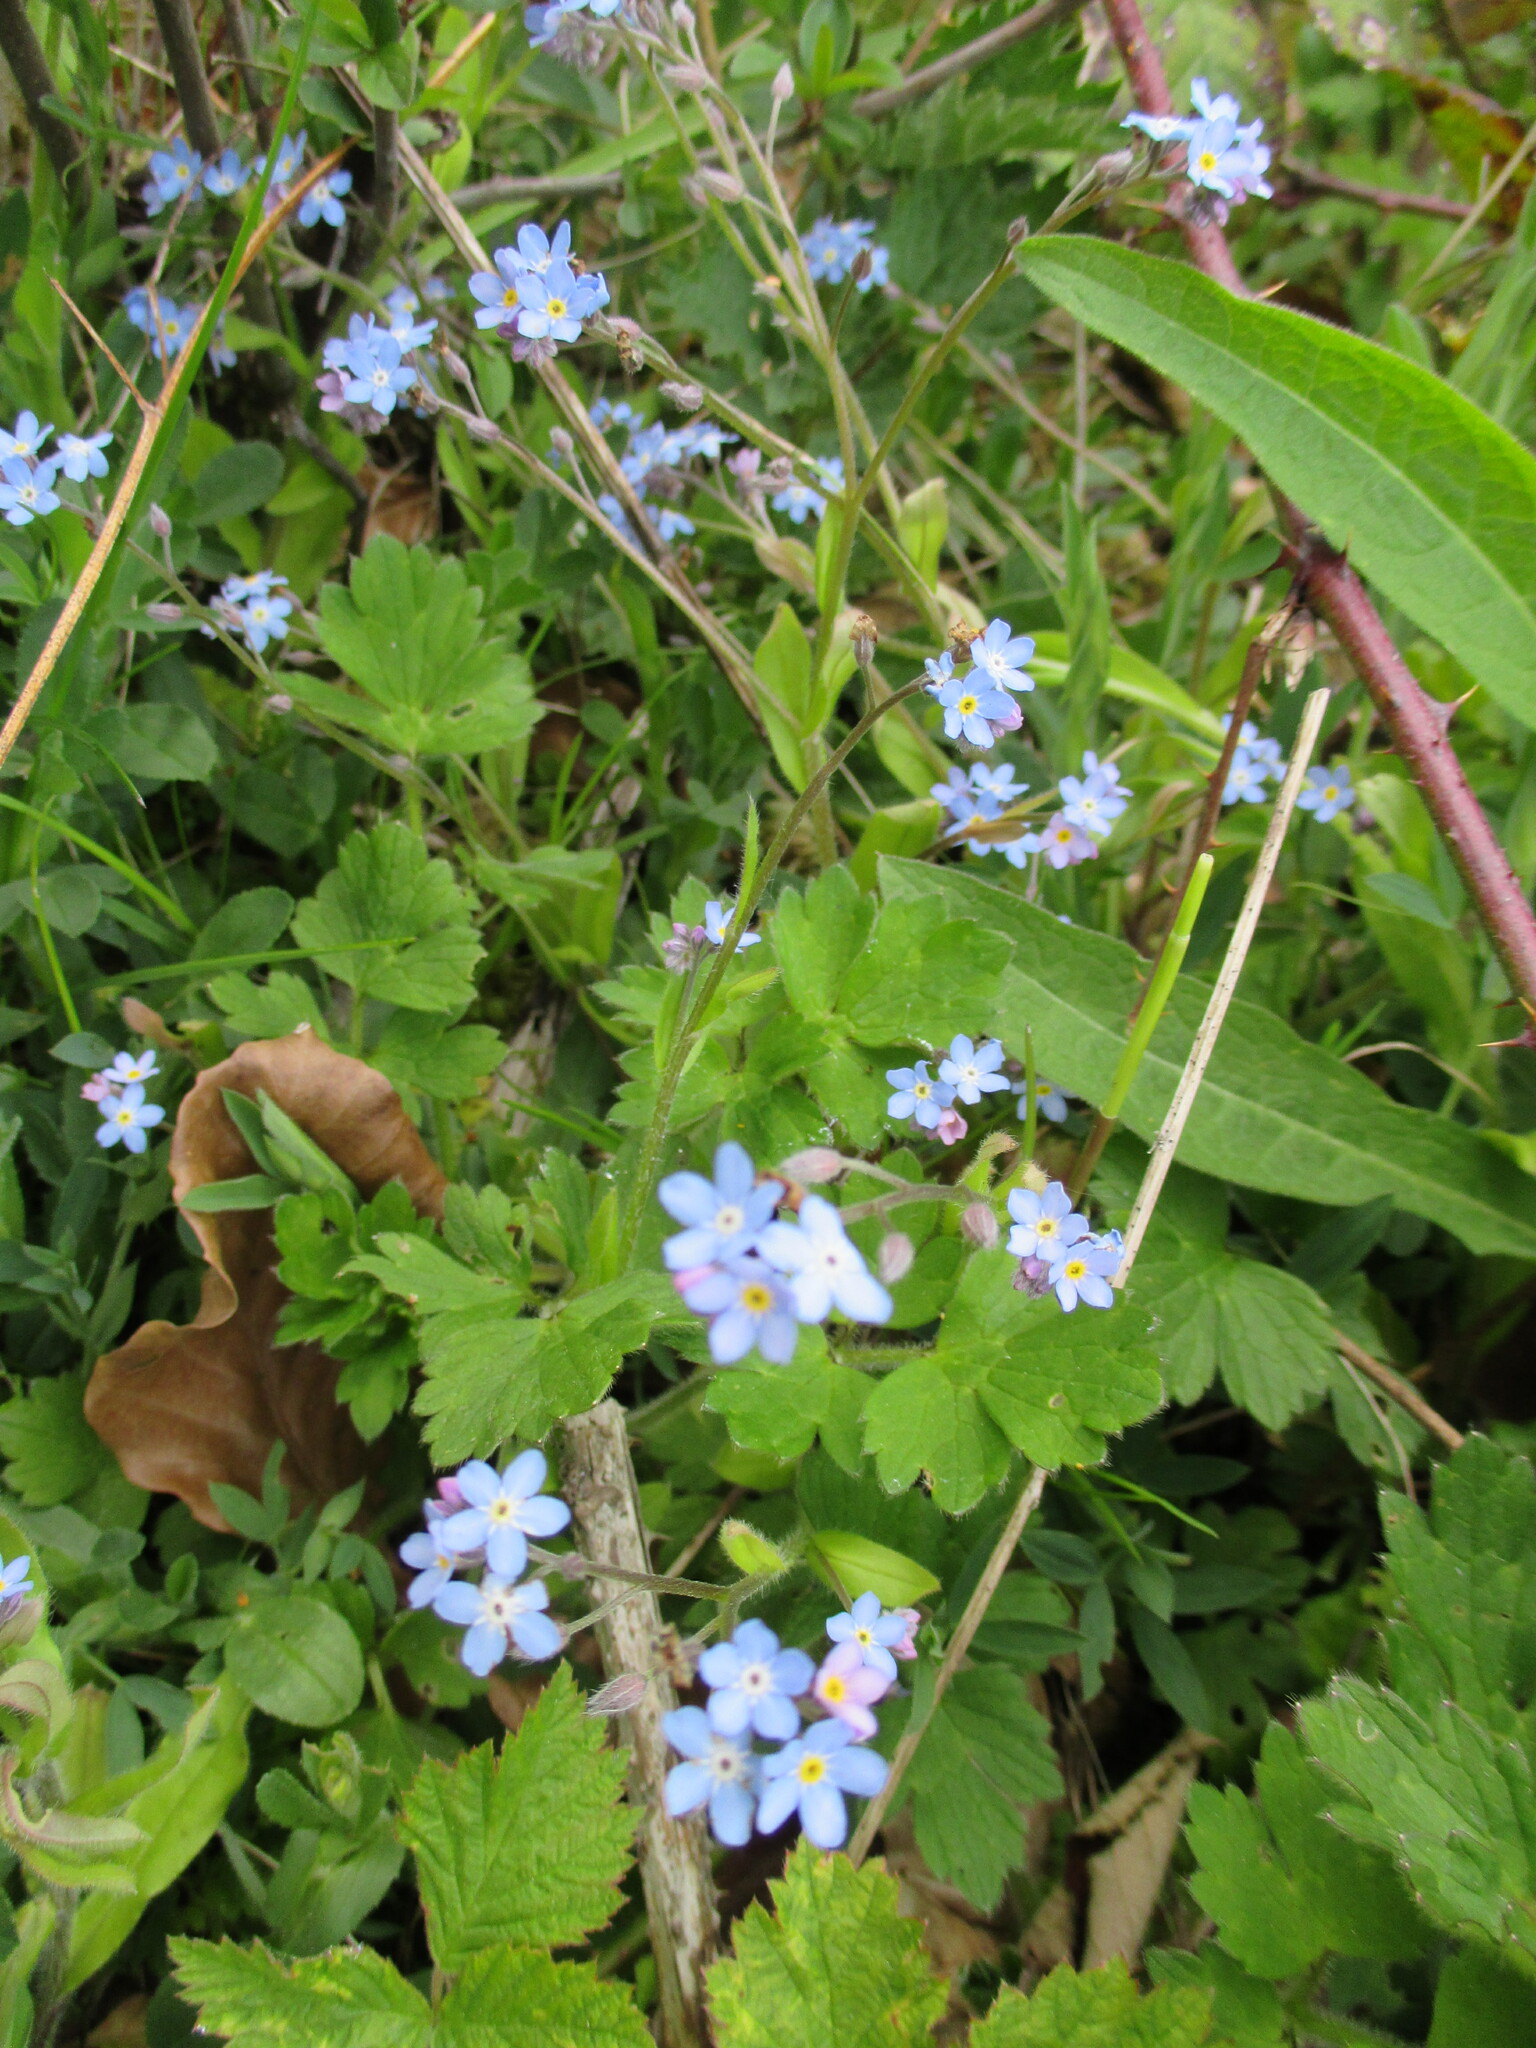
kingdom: Plantae
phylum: Tracheophyta
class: Magnoliopsida
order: Boraginales
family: Boraginaceae
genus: Myosotis
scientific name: Myosotis sylvatica
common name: Wood forget-me-not
